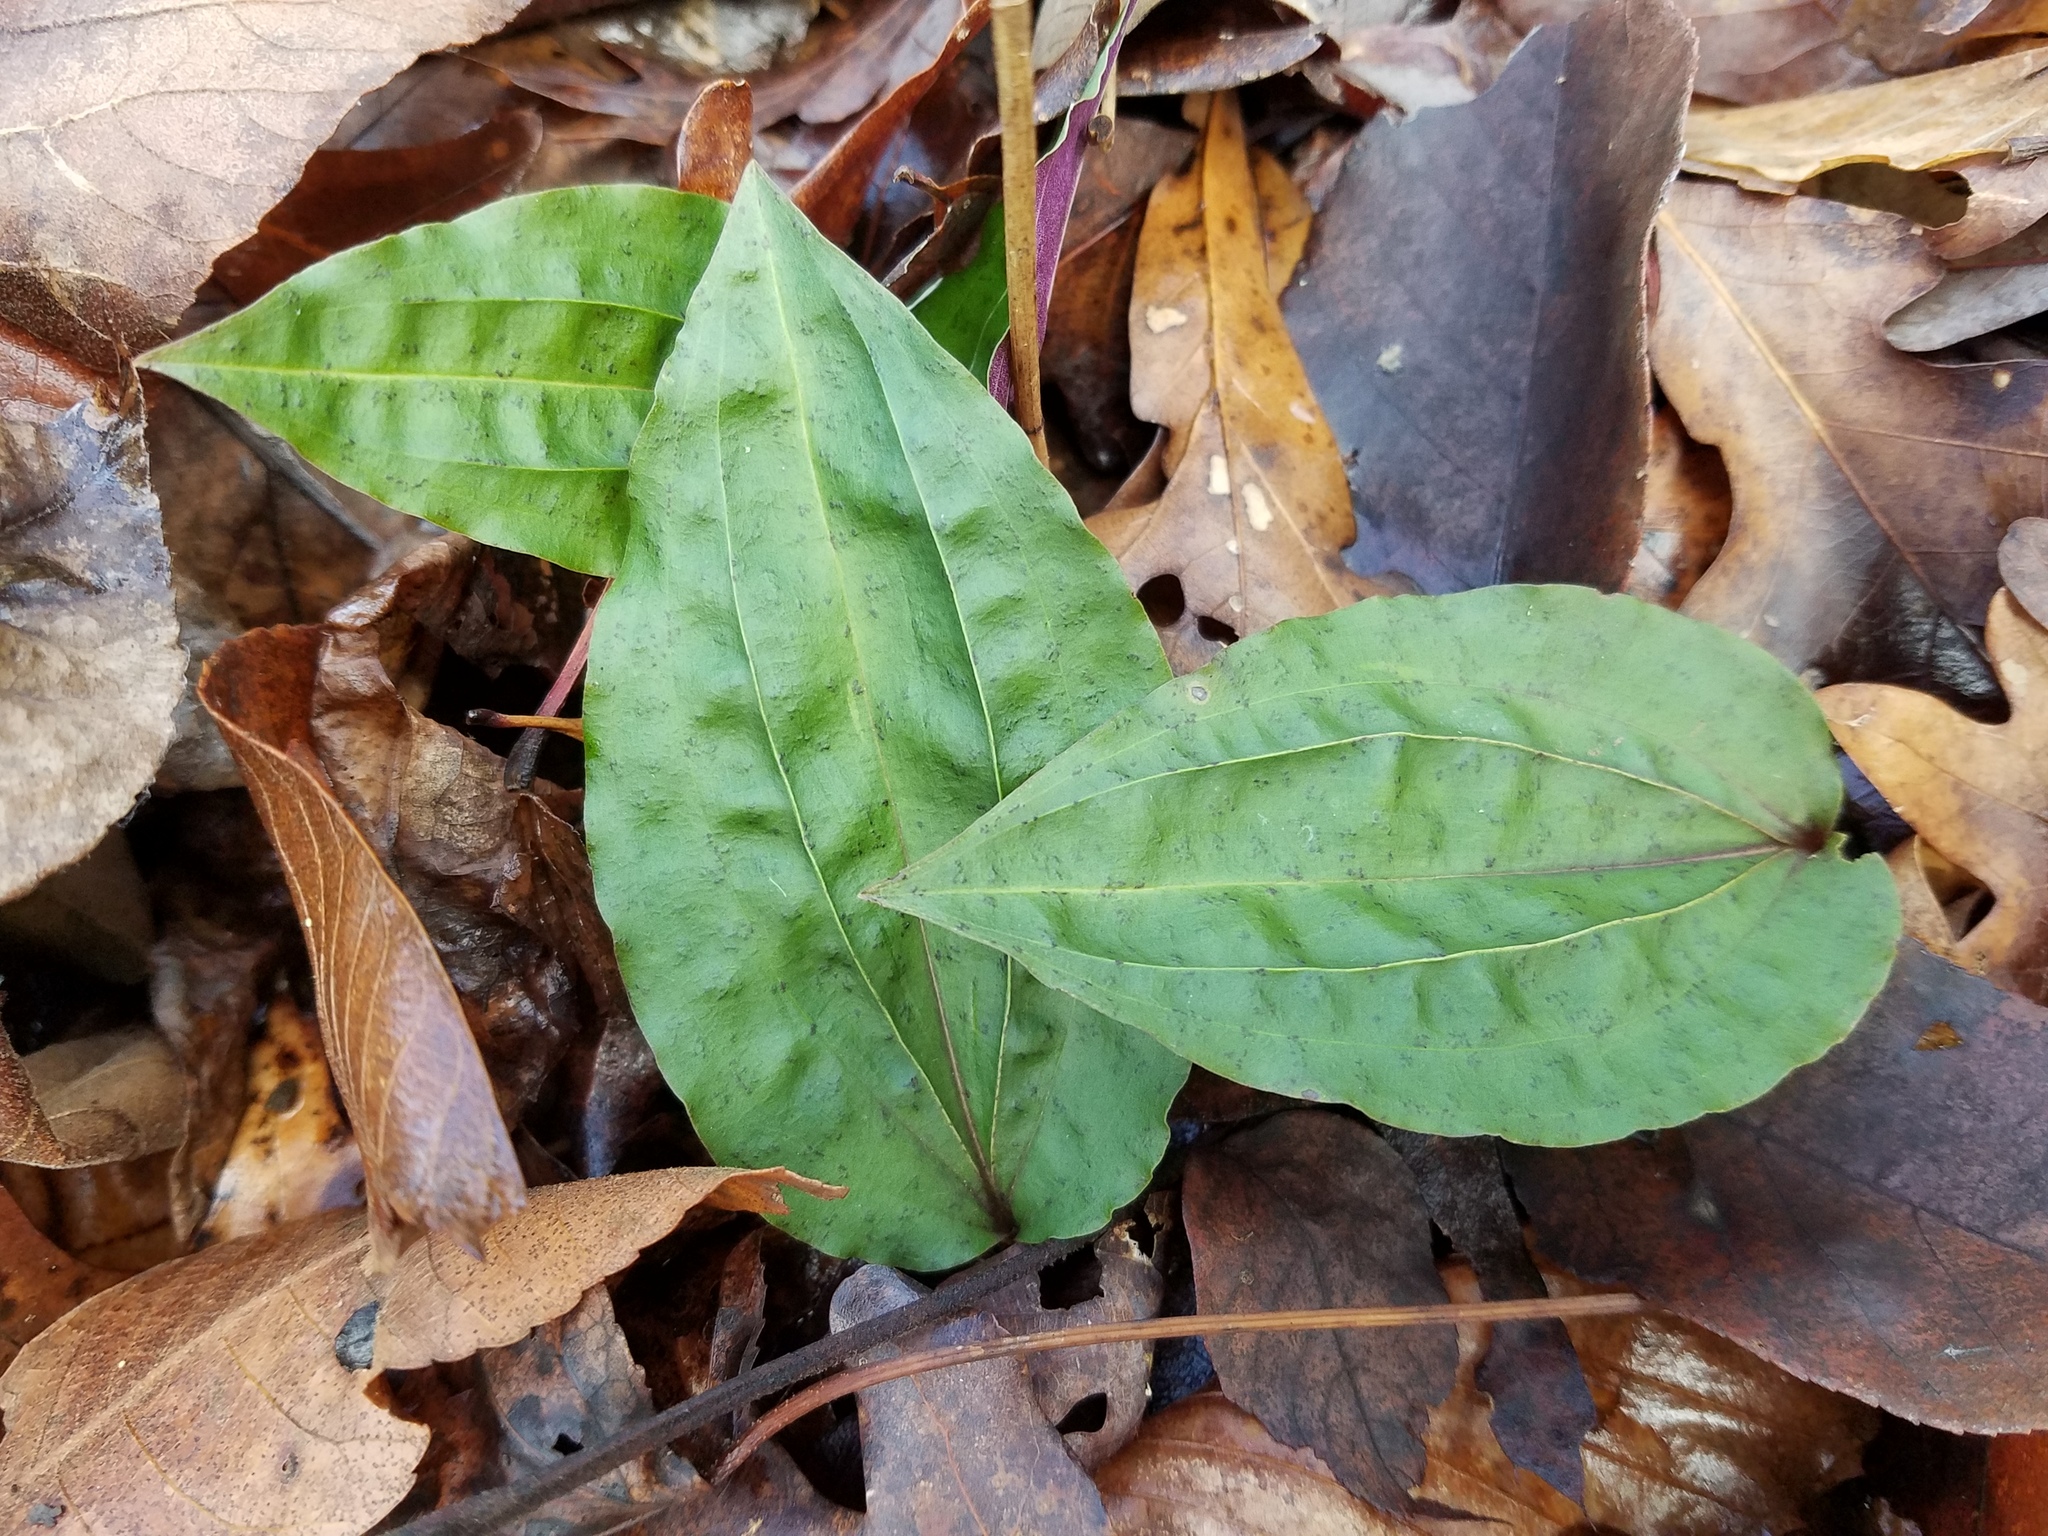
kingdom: Plantae
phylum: Tracheophyta
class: Liliopsida
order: Asparagales
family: Orchidaceae
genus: Tipularia
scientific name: Tipularia discolor
